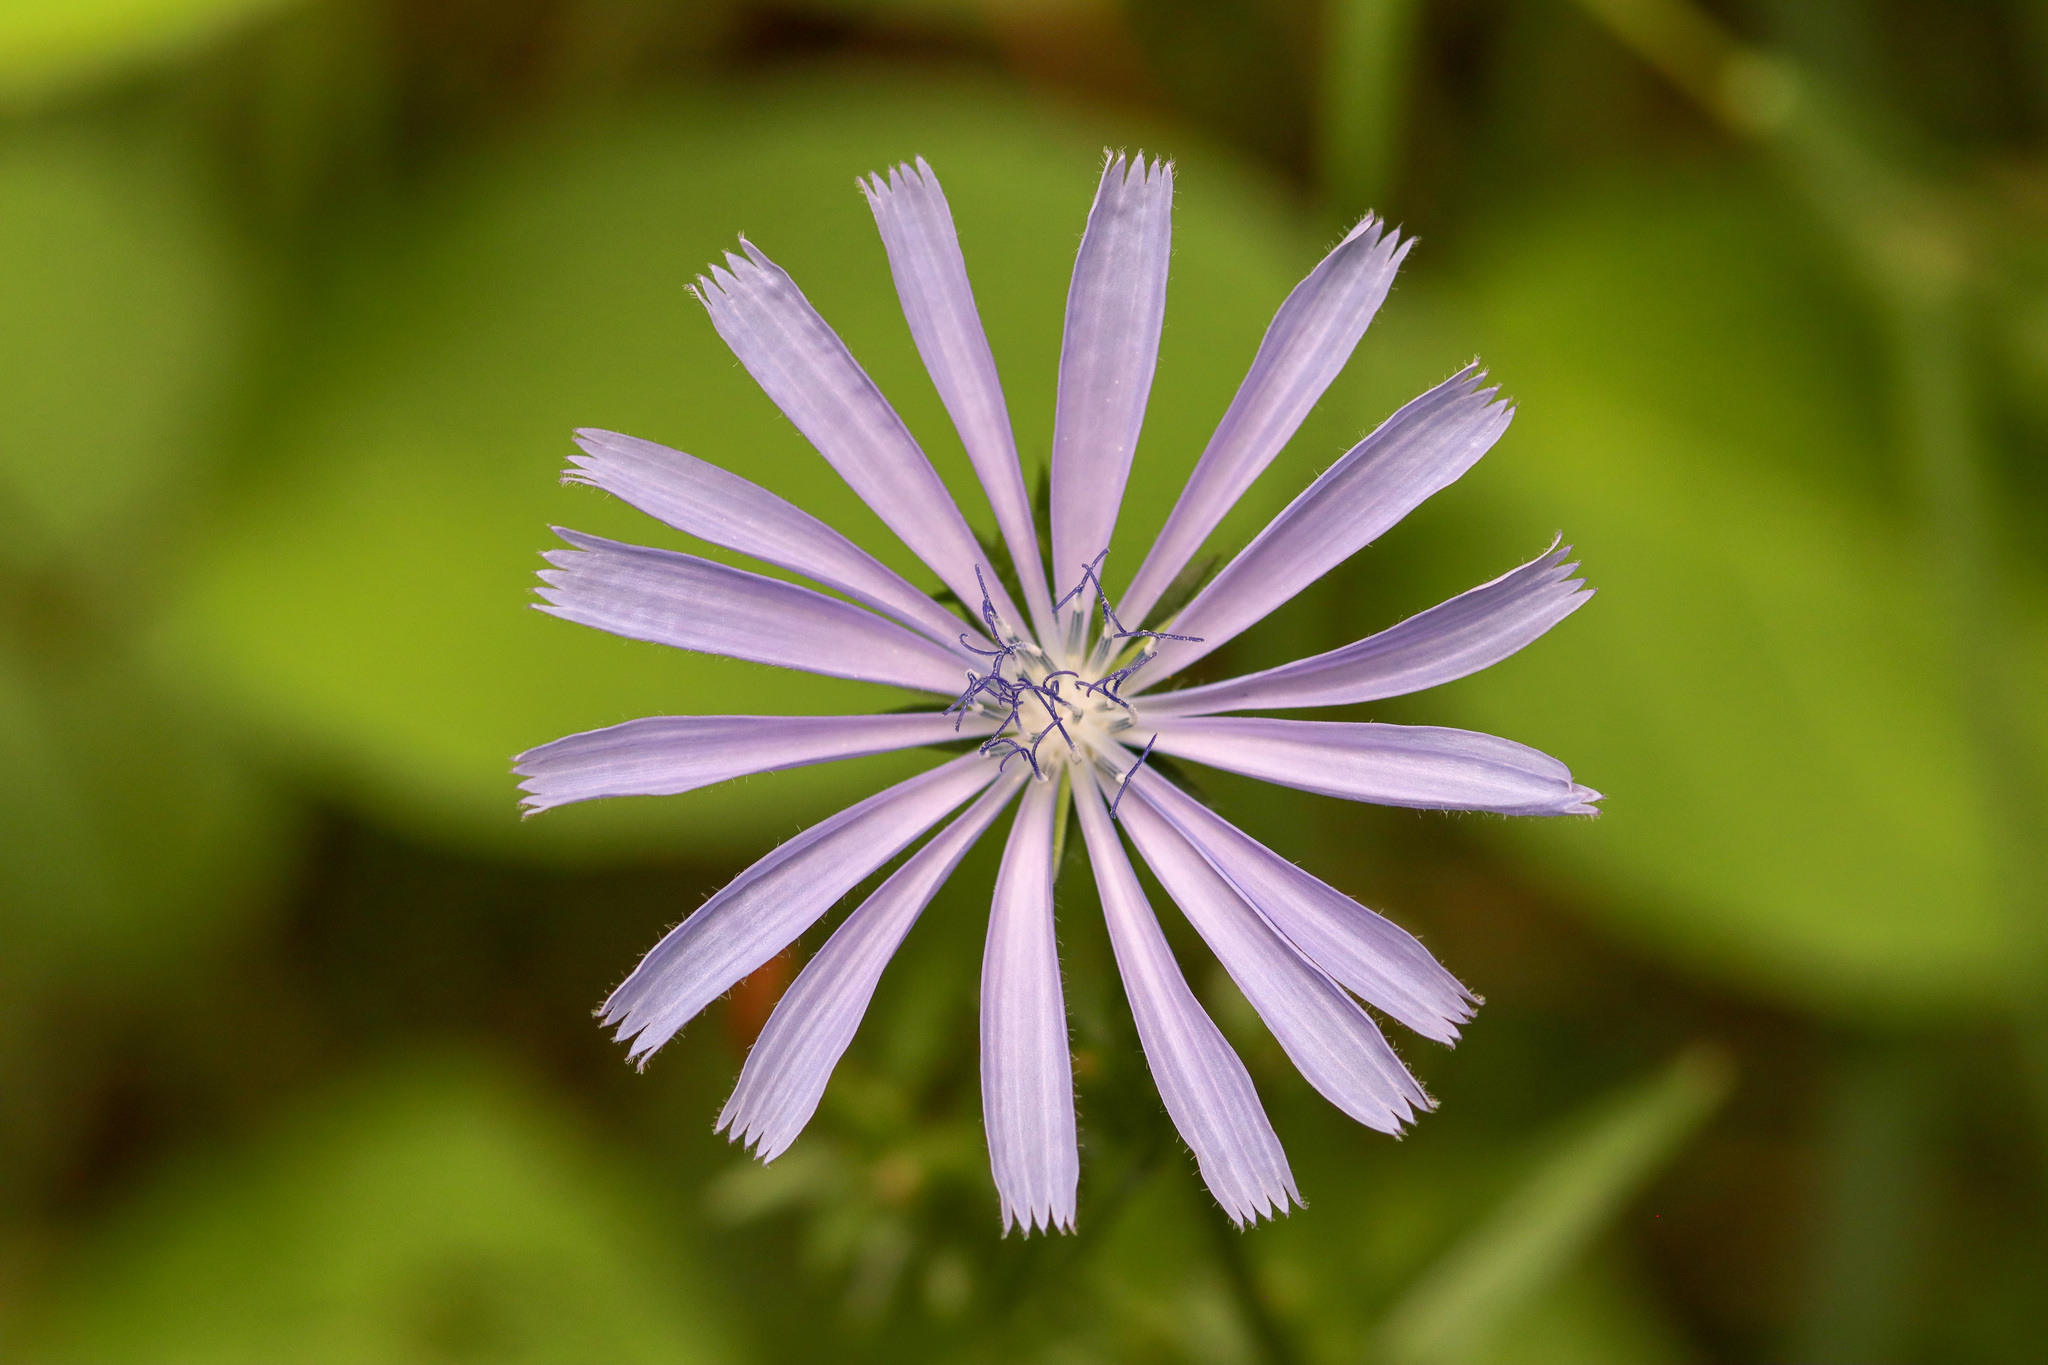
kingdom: Plantae
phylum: Tracheophyta
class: Magnoliopsida
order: Asterales
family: Asteraceae
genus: Cichorium
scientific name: Cichorium intybus
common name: Chicory
